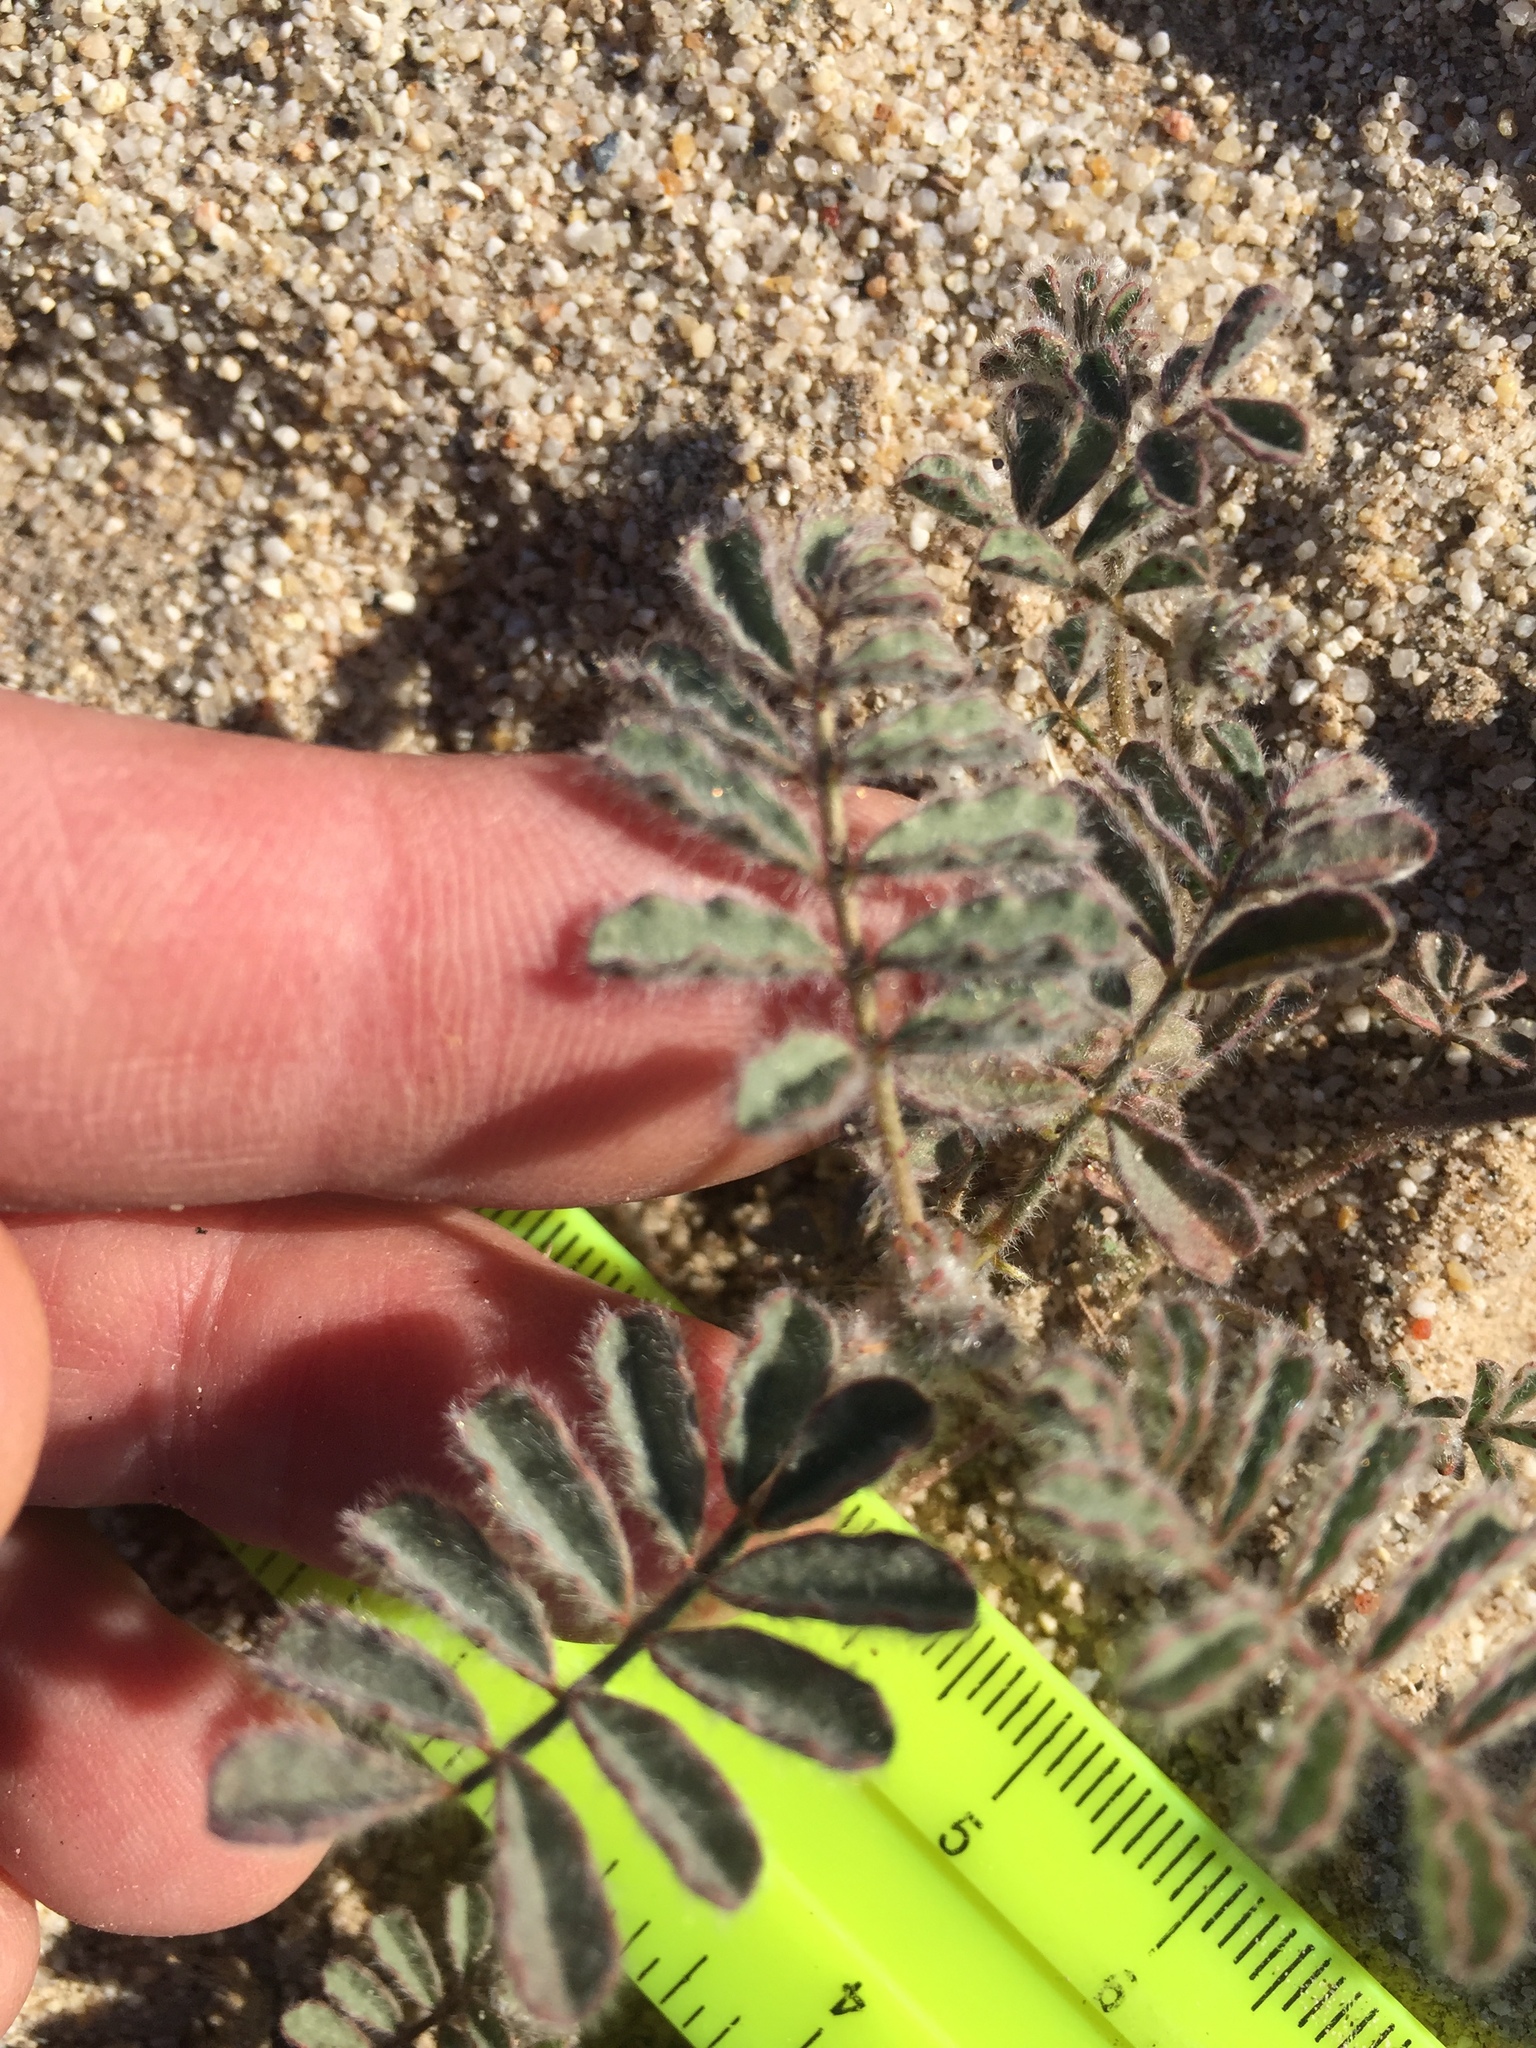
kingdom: Plantae
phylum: Tracheophyta
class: Magnoliopsida
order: Fabales
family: Fabaceae
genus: Dalea
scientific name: Dalea mollissima
